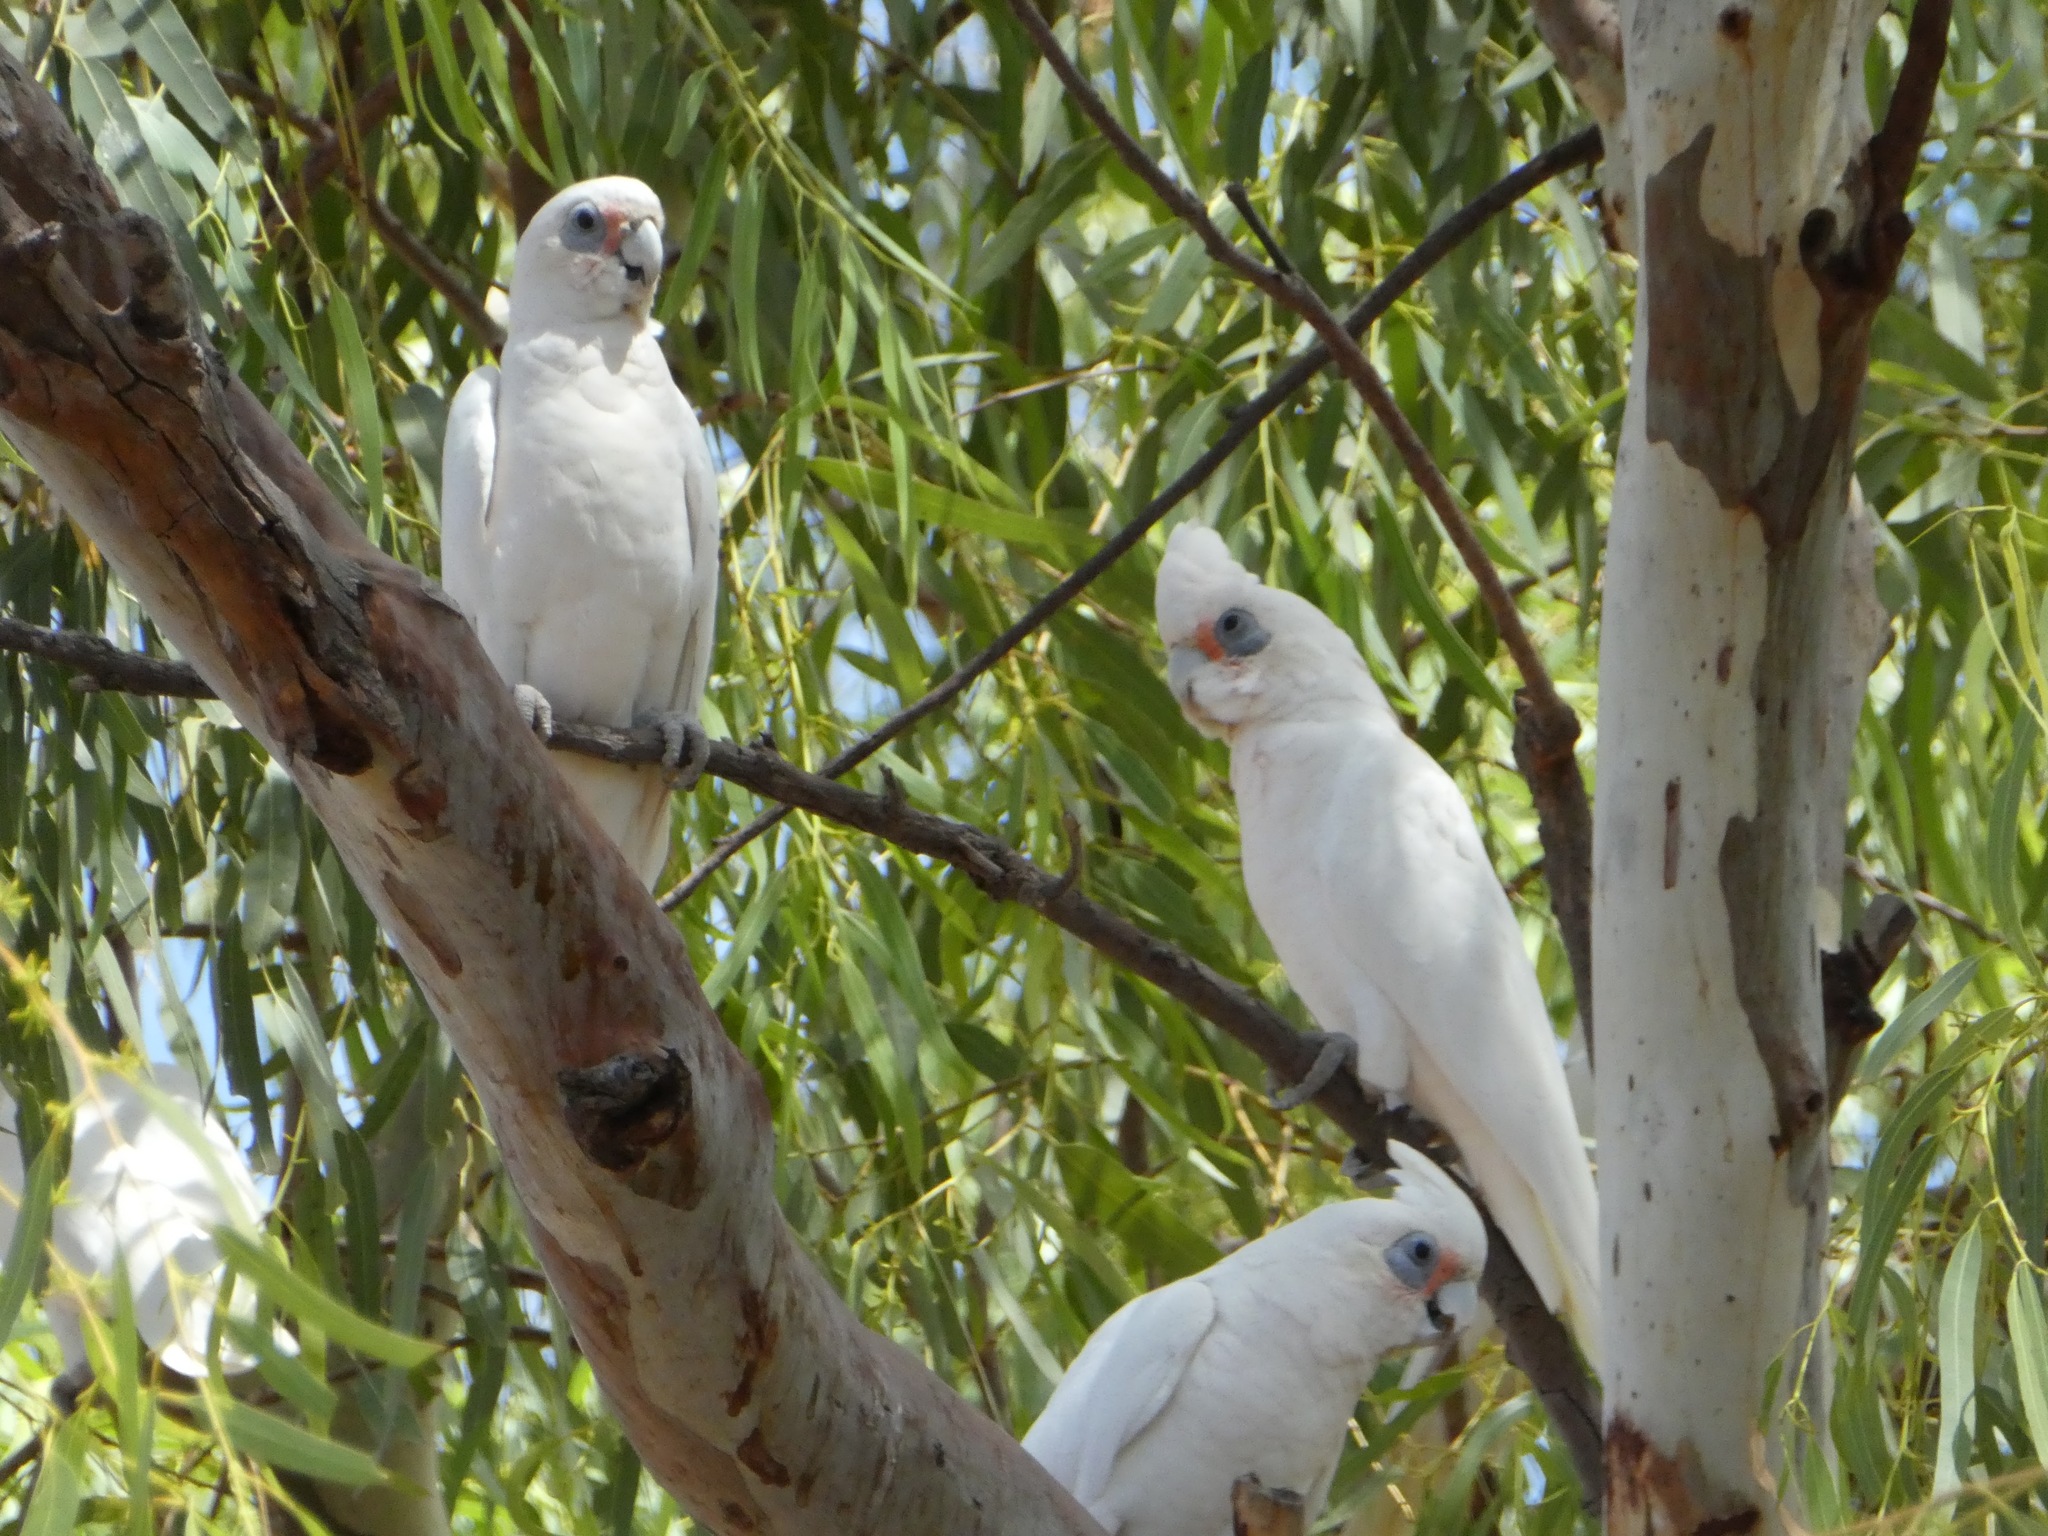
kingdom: Animalia
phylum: Chordata
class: Aves
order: Psittaciformes
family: Psittacidae
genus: Cacatua
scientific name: Cacatua sanguinea
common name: Little corella
